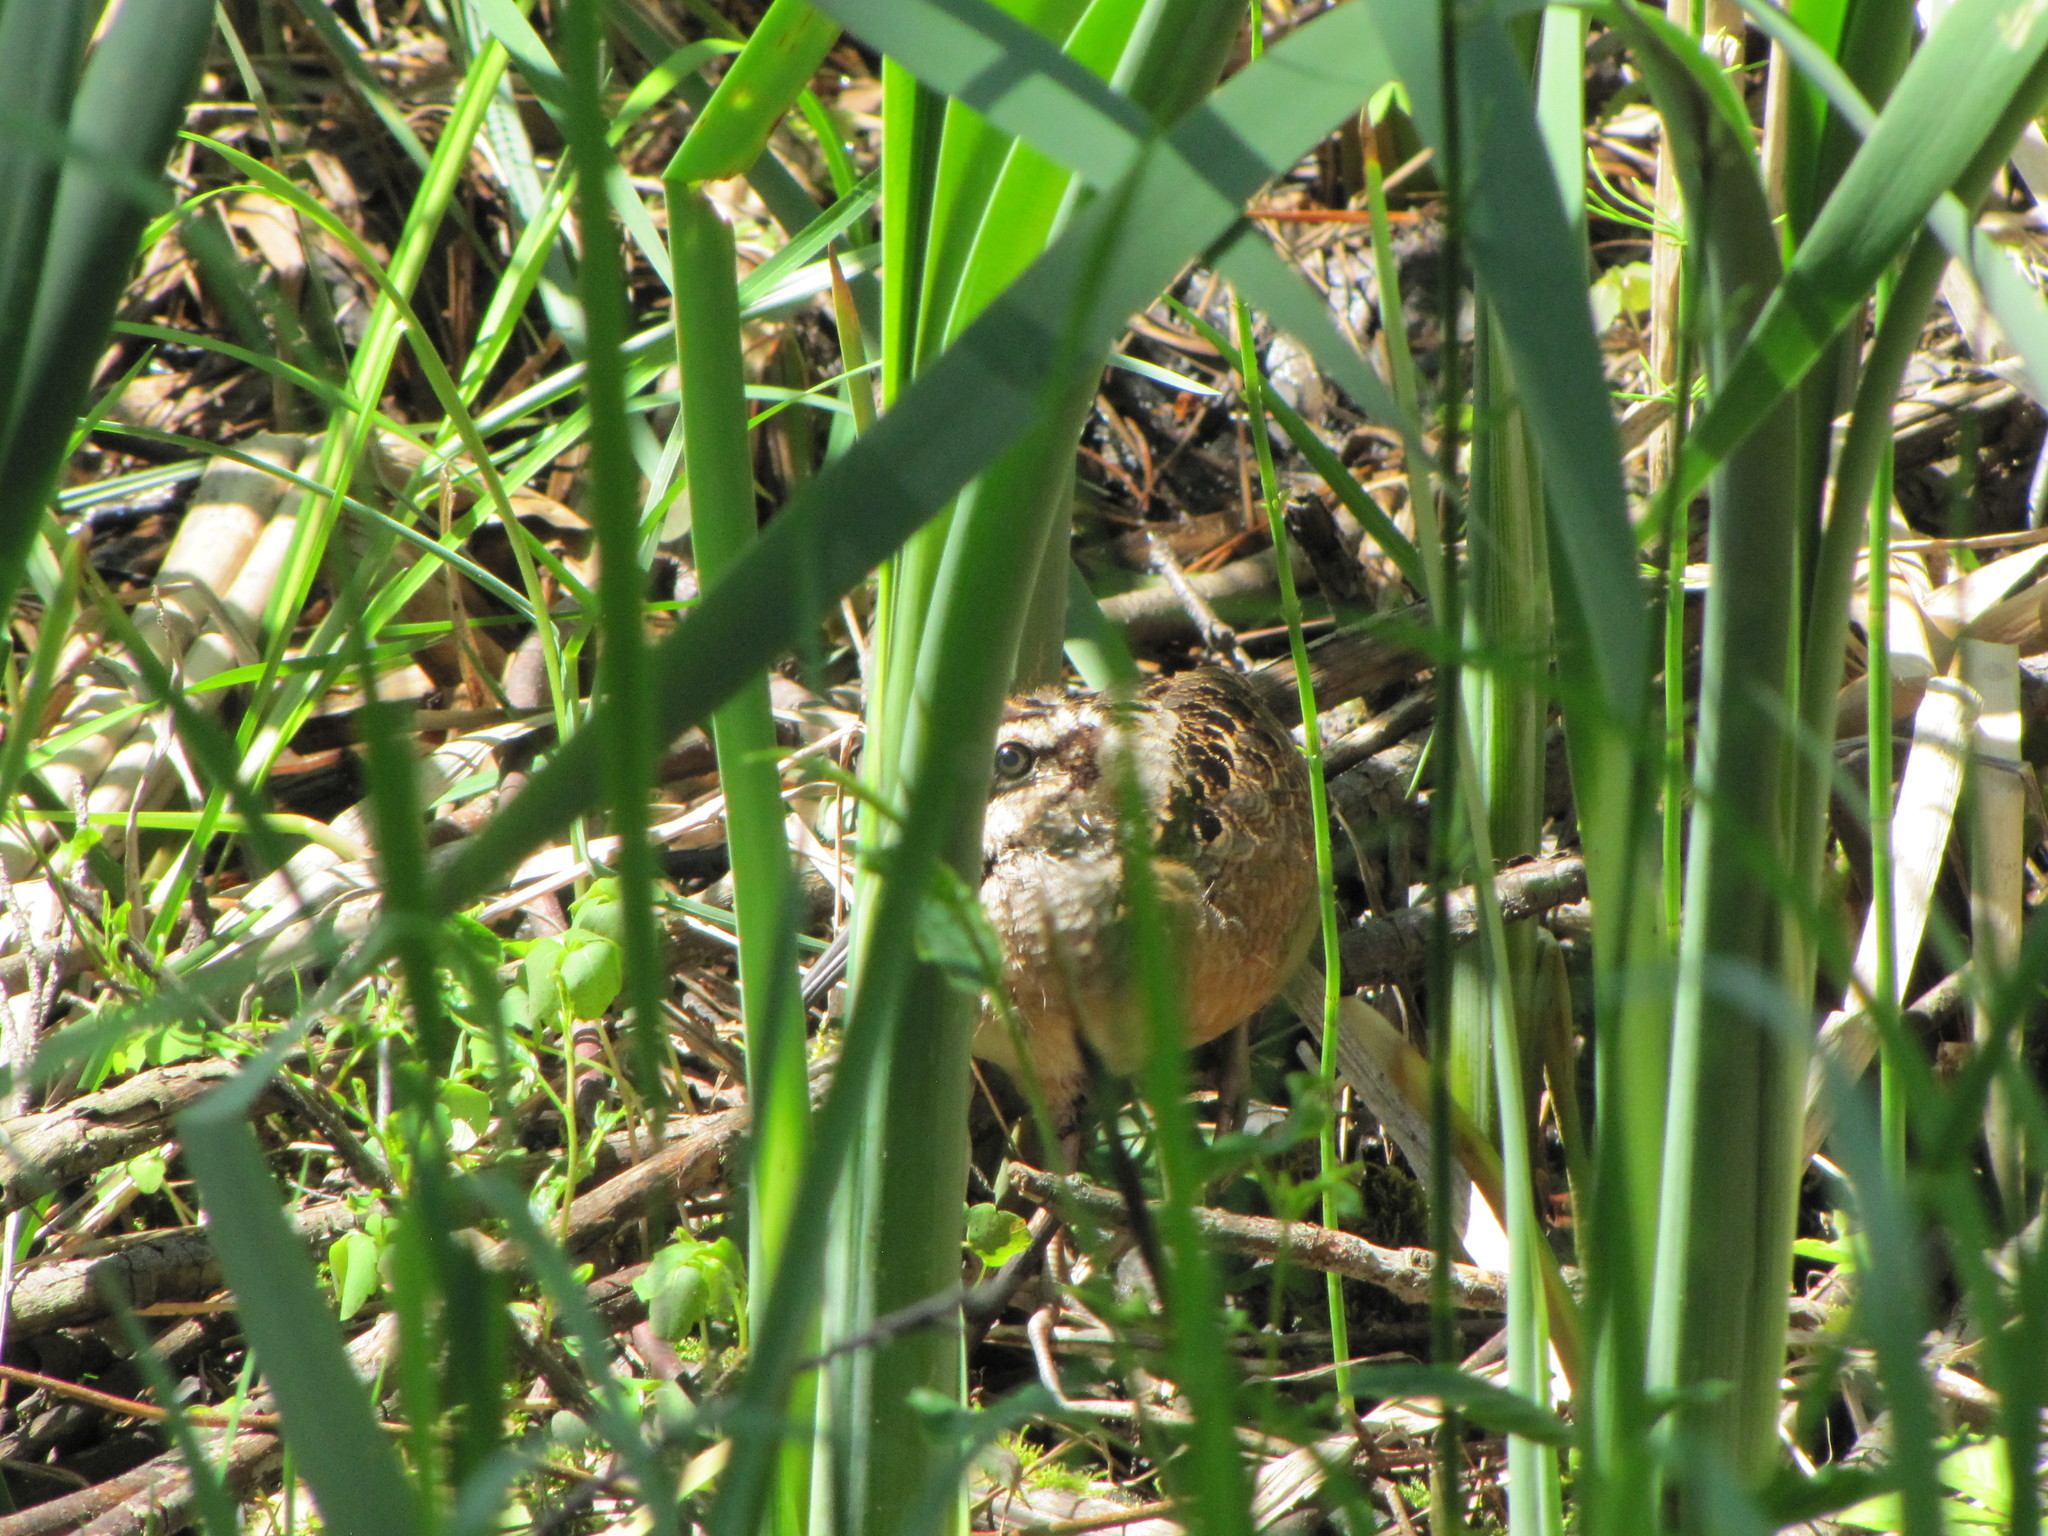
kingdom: Animalia
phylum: Chordata
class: Aves
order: Charadriiformes
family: Scolopacidae
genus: Scolopax
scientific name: Scolopax minor
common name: American woodcock
